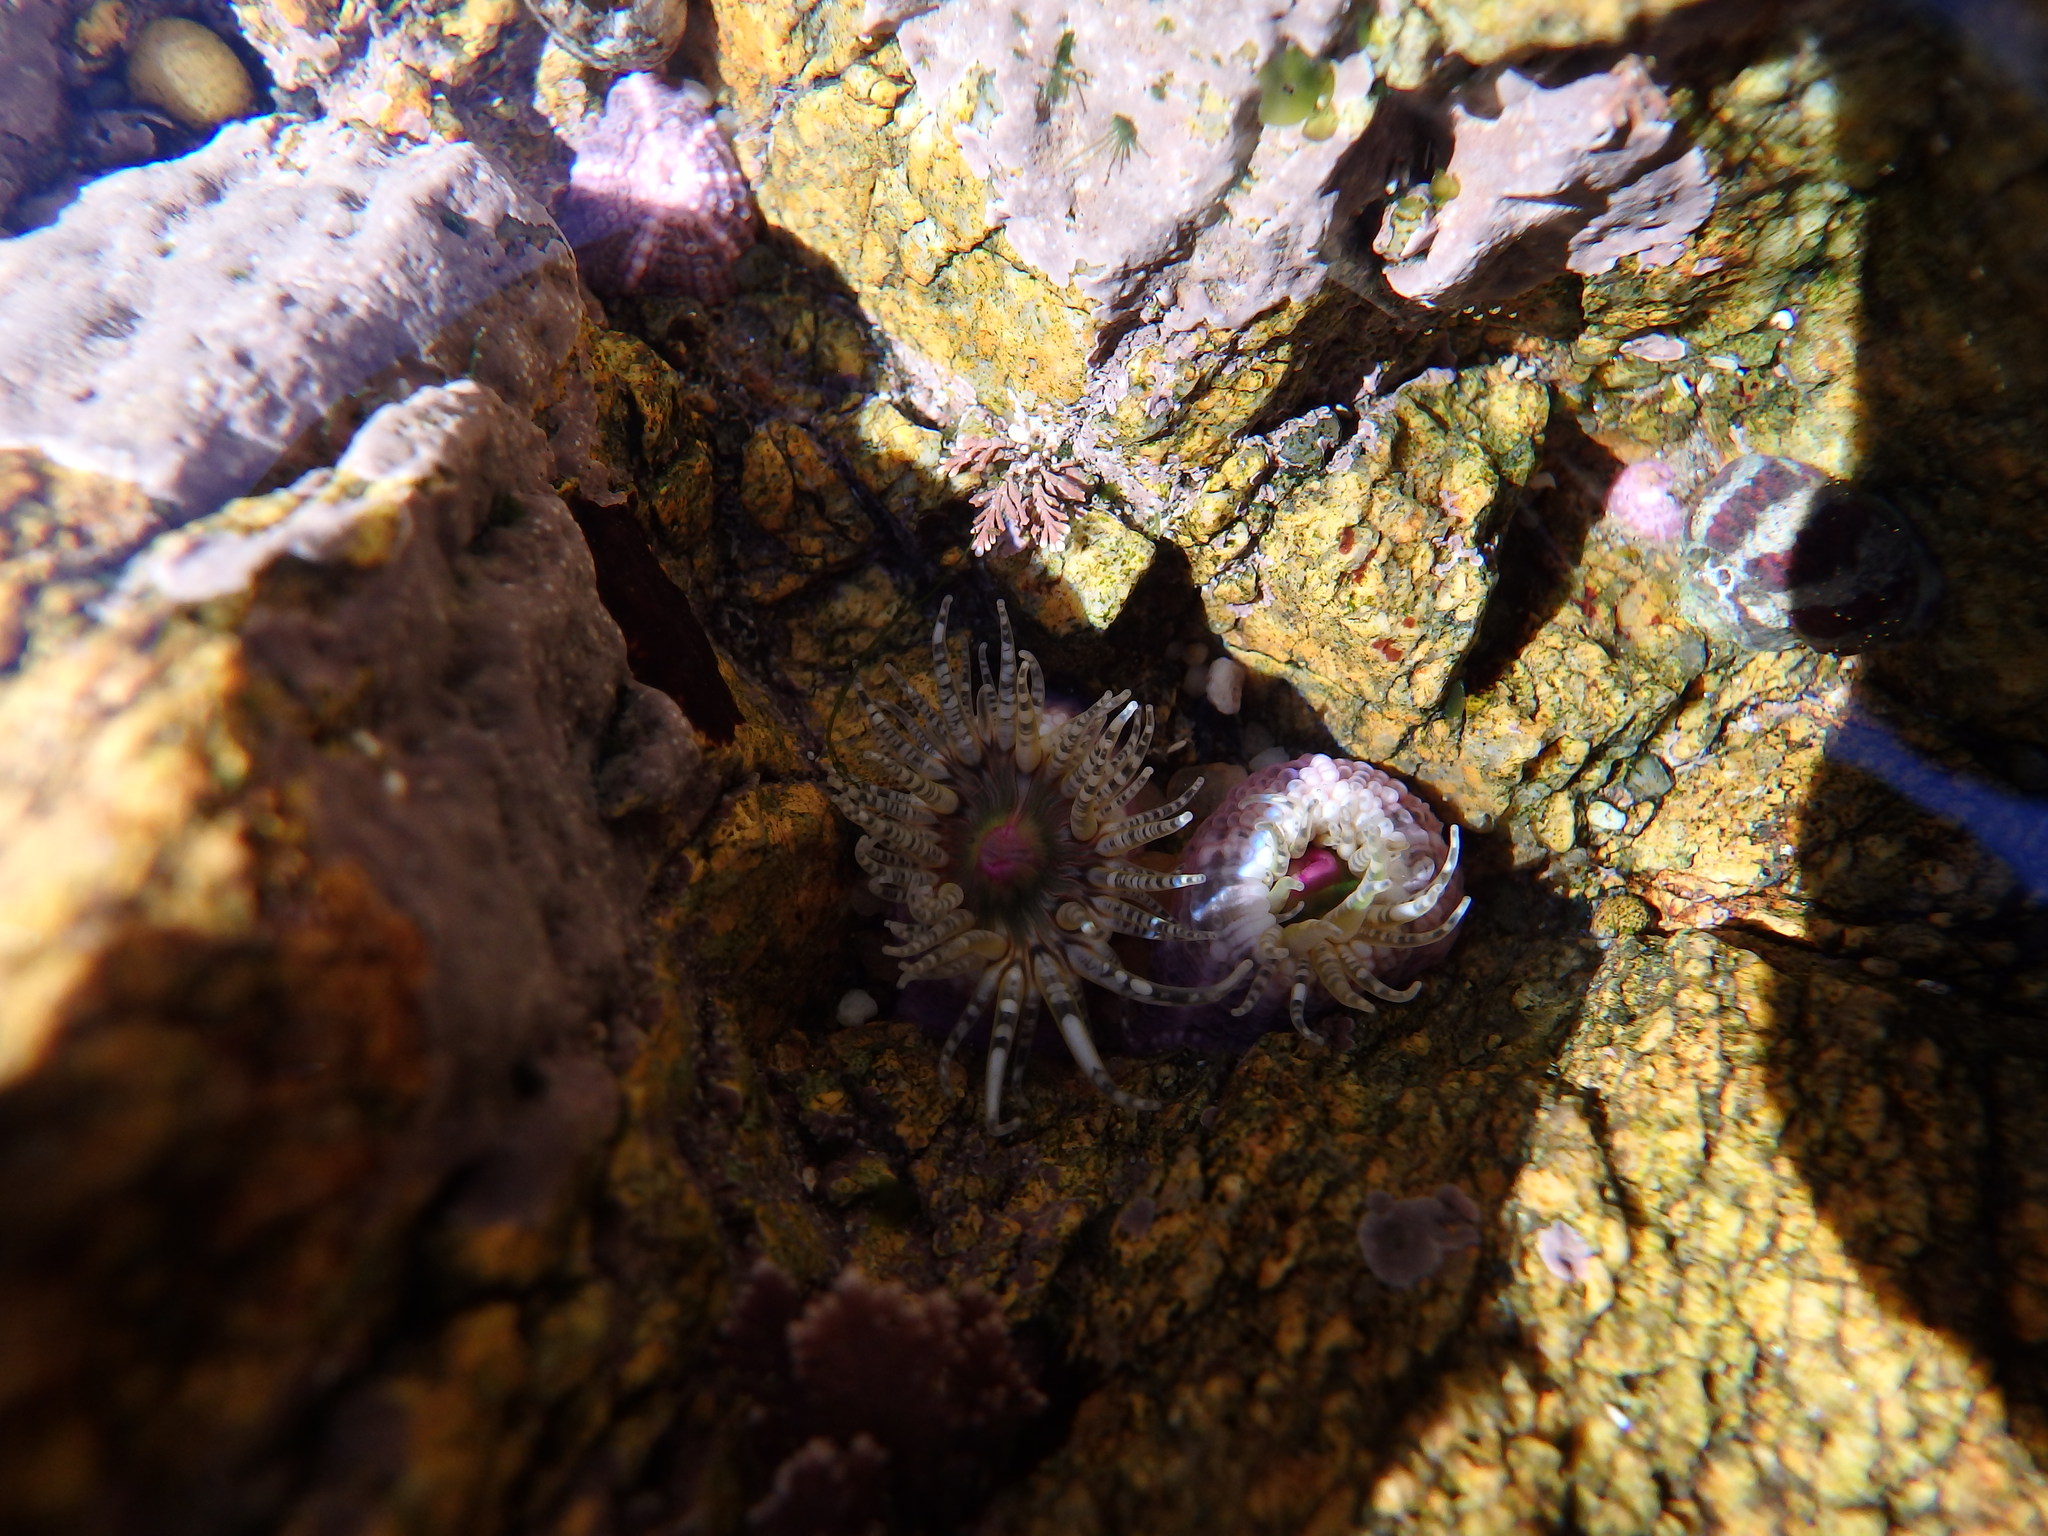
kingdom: Animalia
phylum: Cnidaria
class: Anthozoa
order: Actiniaria
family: Actiniidae
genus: Bunodactis
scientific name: Bunodactis verrucosa
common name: Gem anemone
